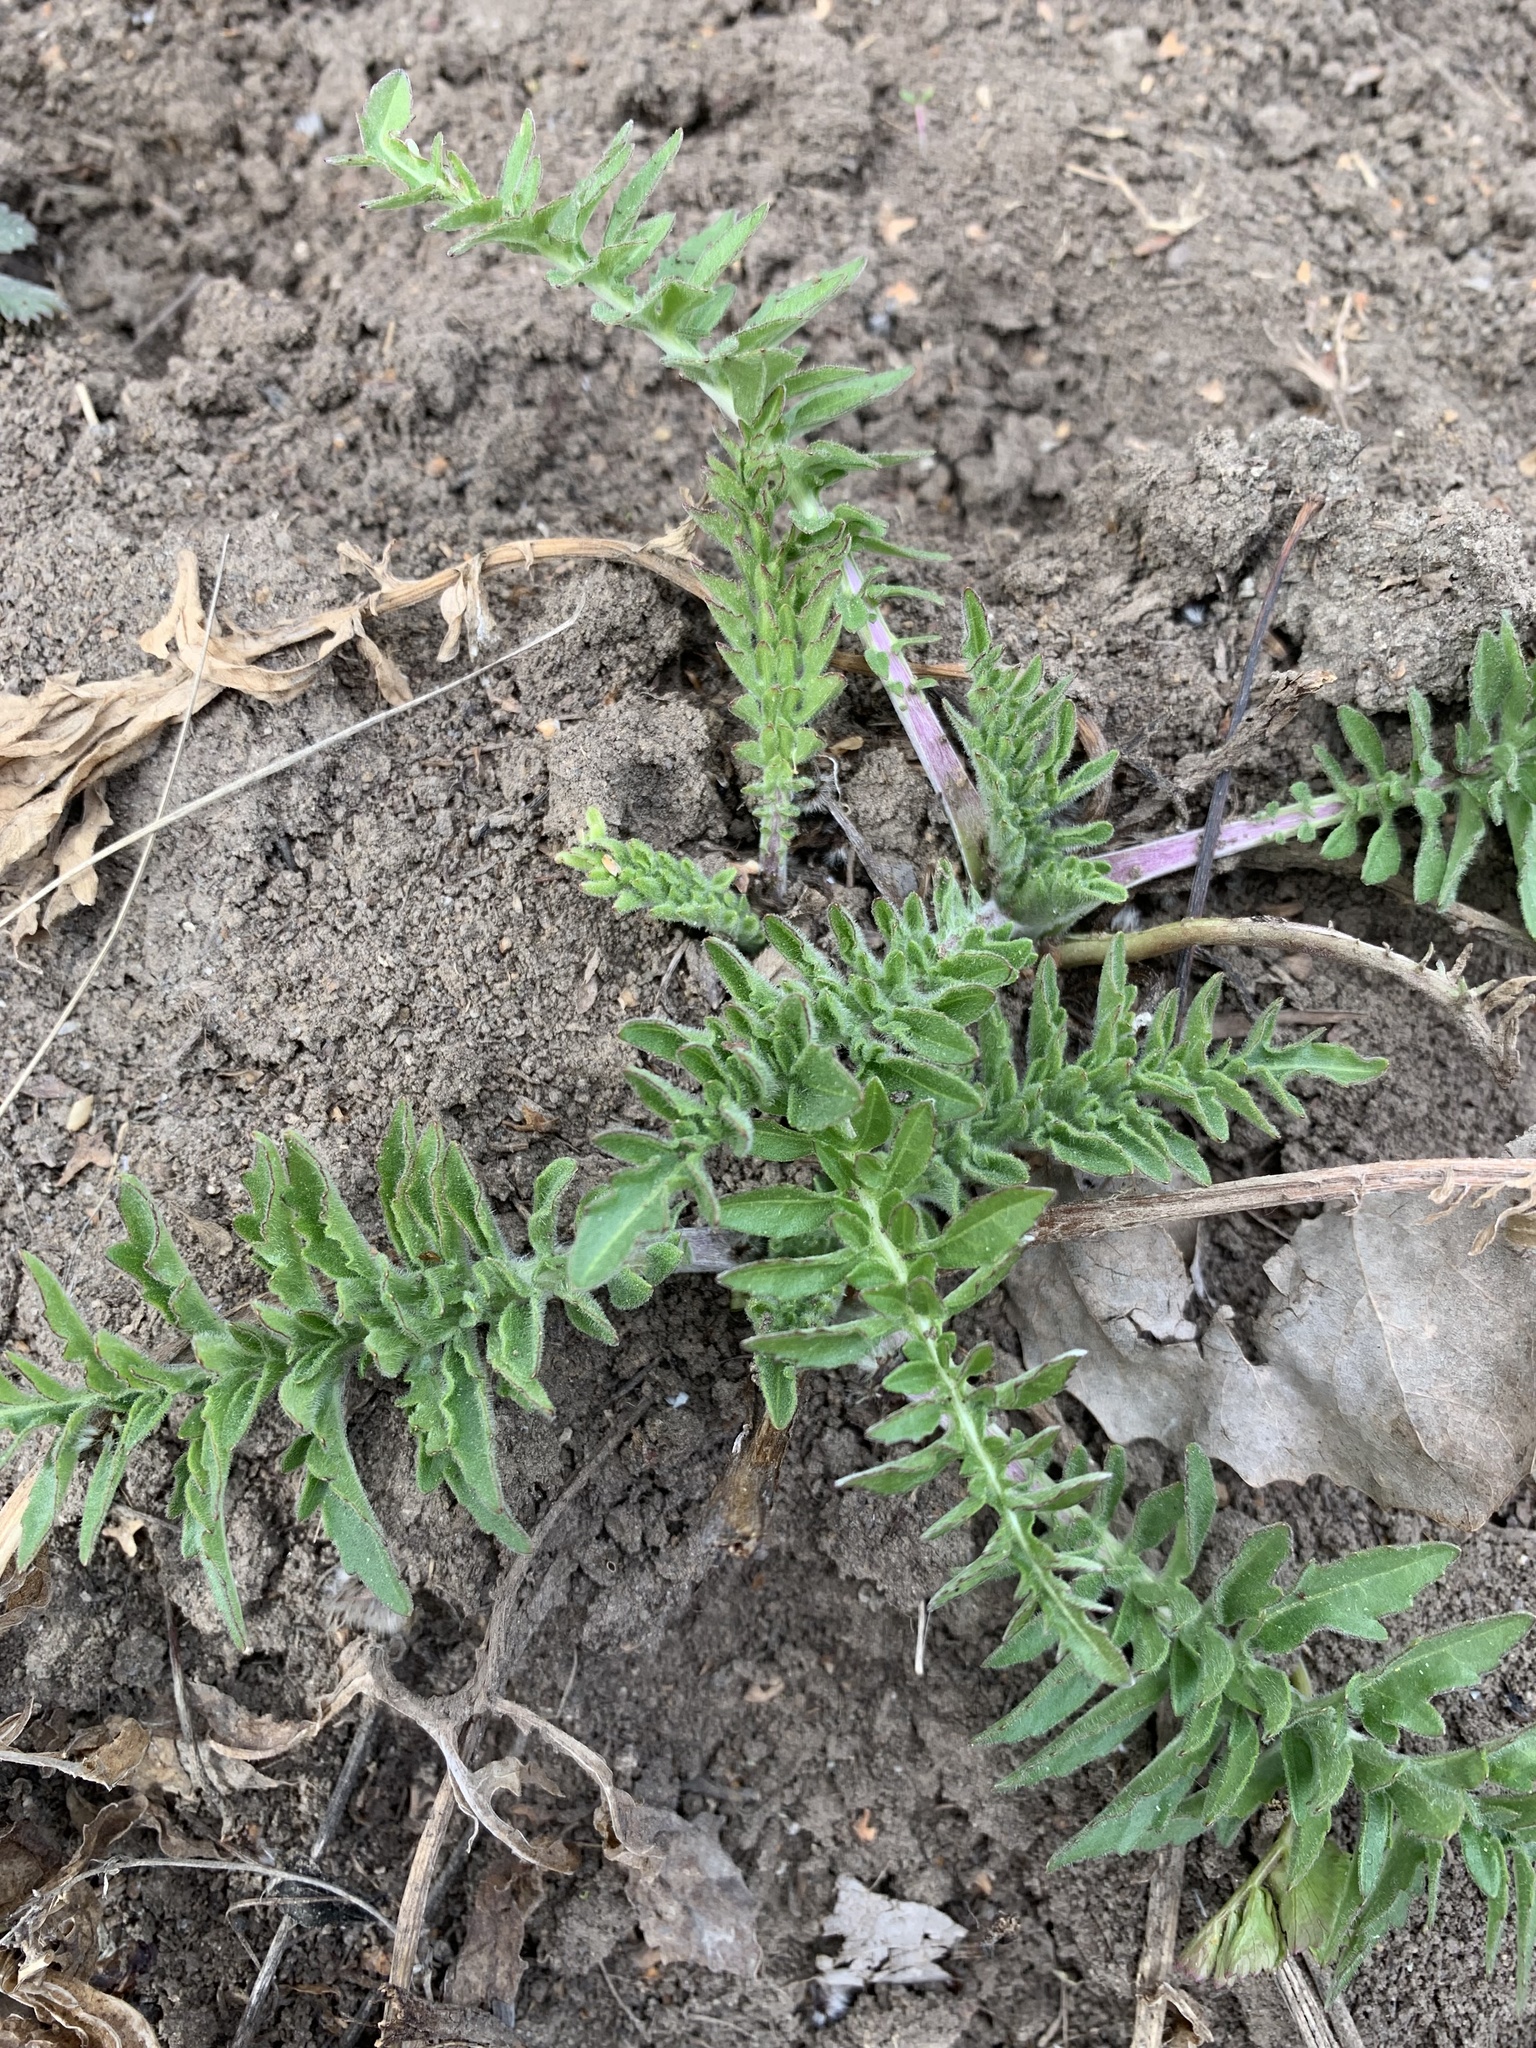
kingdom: Plantae
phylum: Tracheophyta
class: Magnoliopsida
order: Asterales
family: Asteraceae
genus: Centaurea
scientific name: Centaurea scabiosa
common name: Greater knapweed
